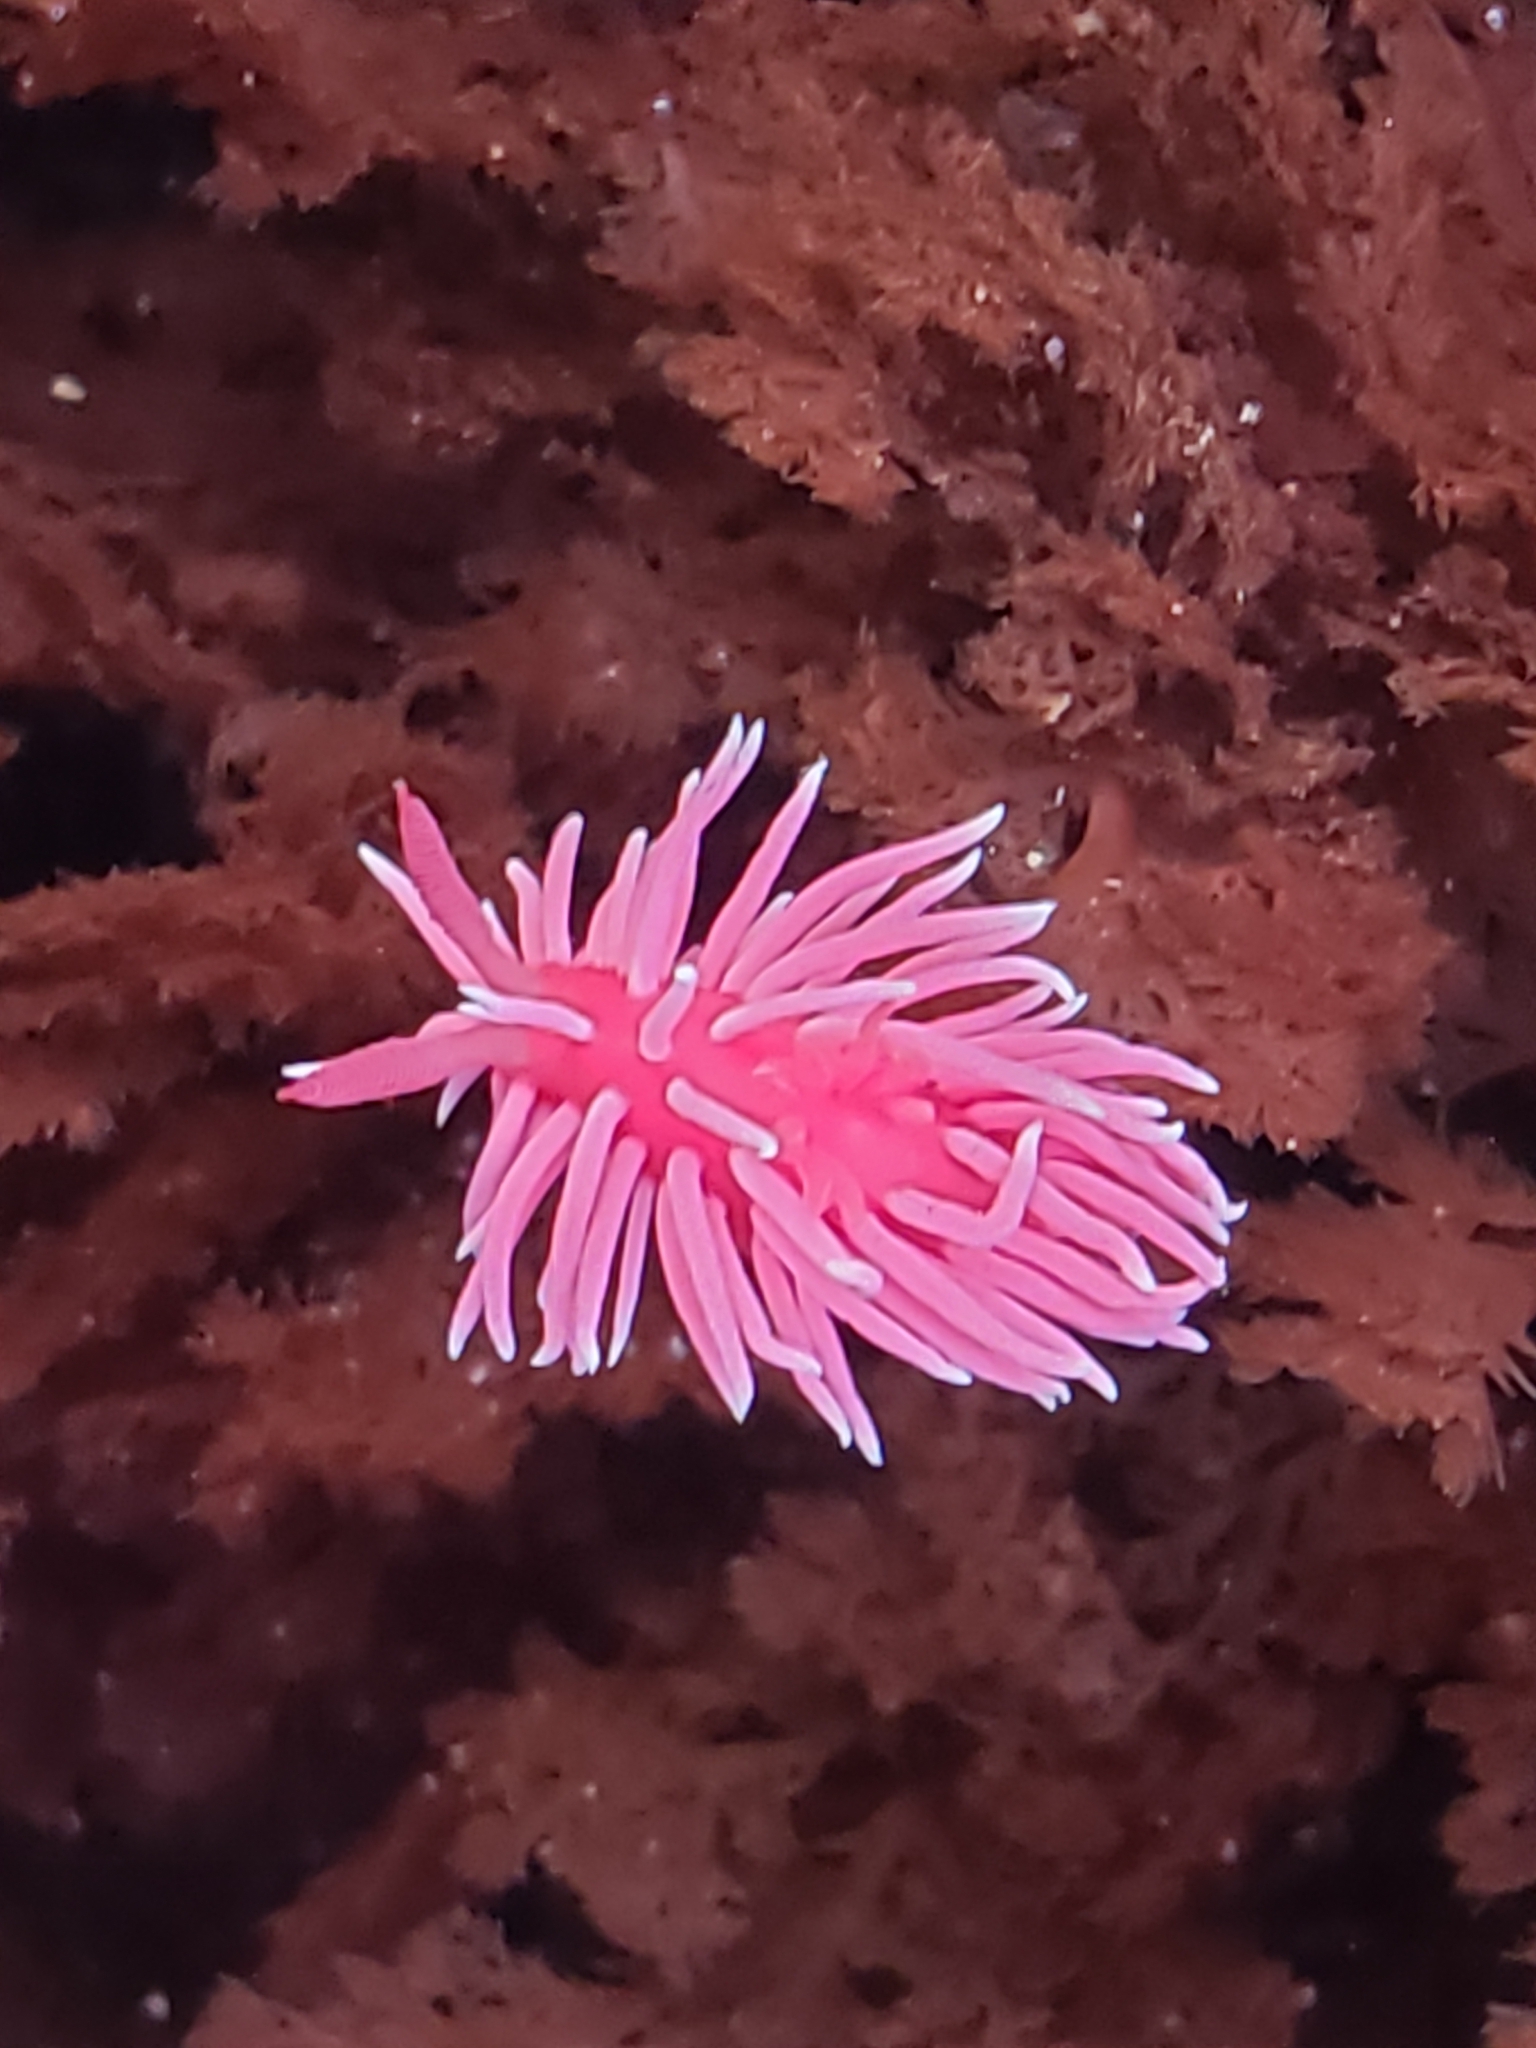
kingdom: Animalia
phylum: Mollusca
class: Gastropoda
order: Nudibranchia
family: Goniodorididae
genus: Okenia
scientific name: Okenia
